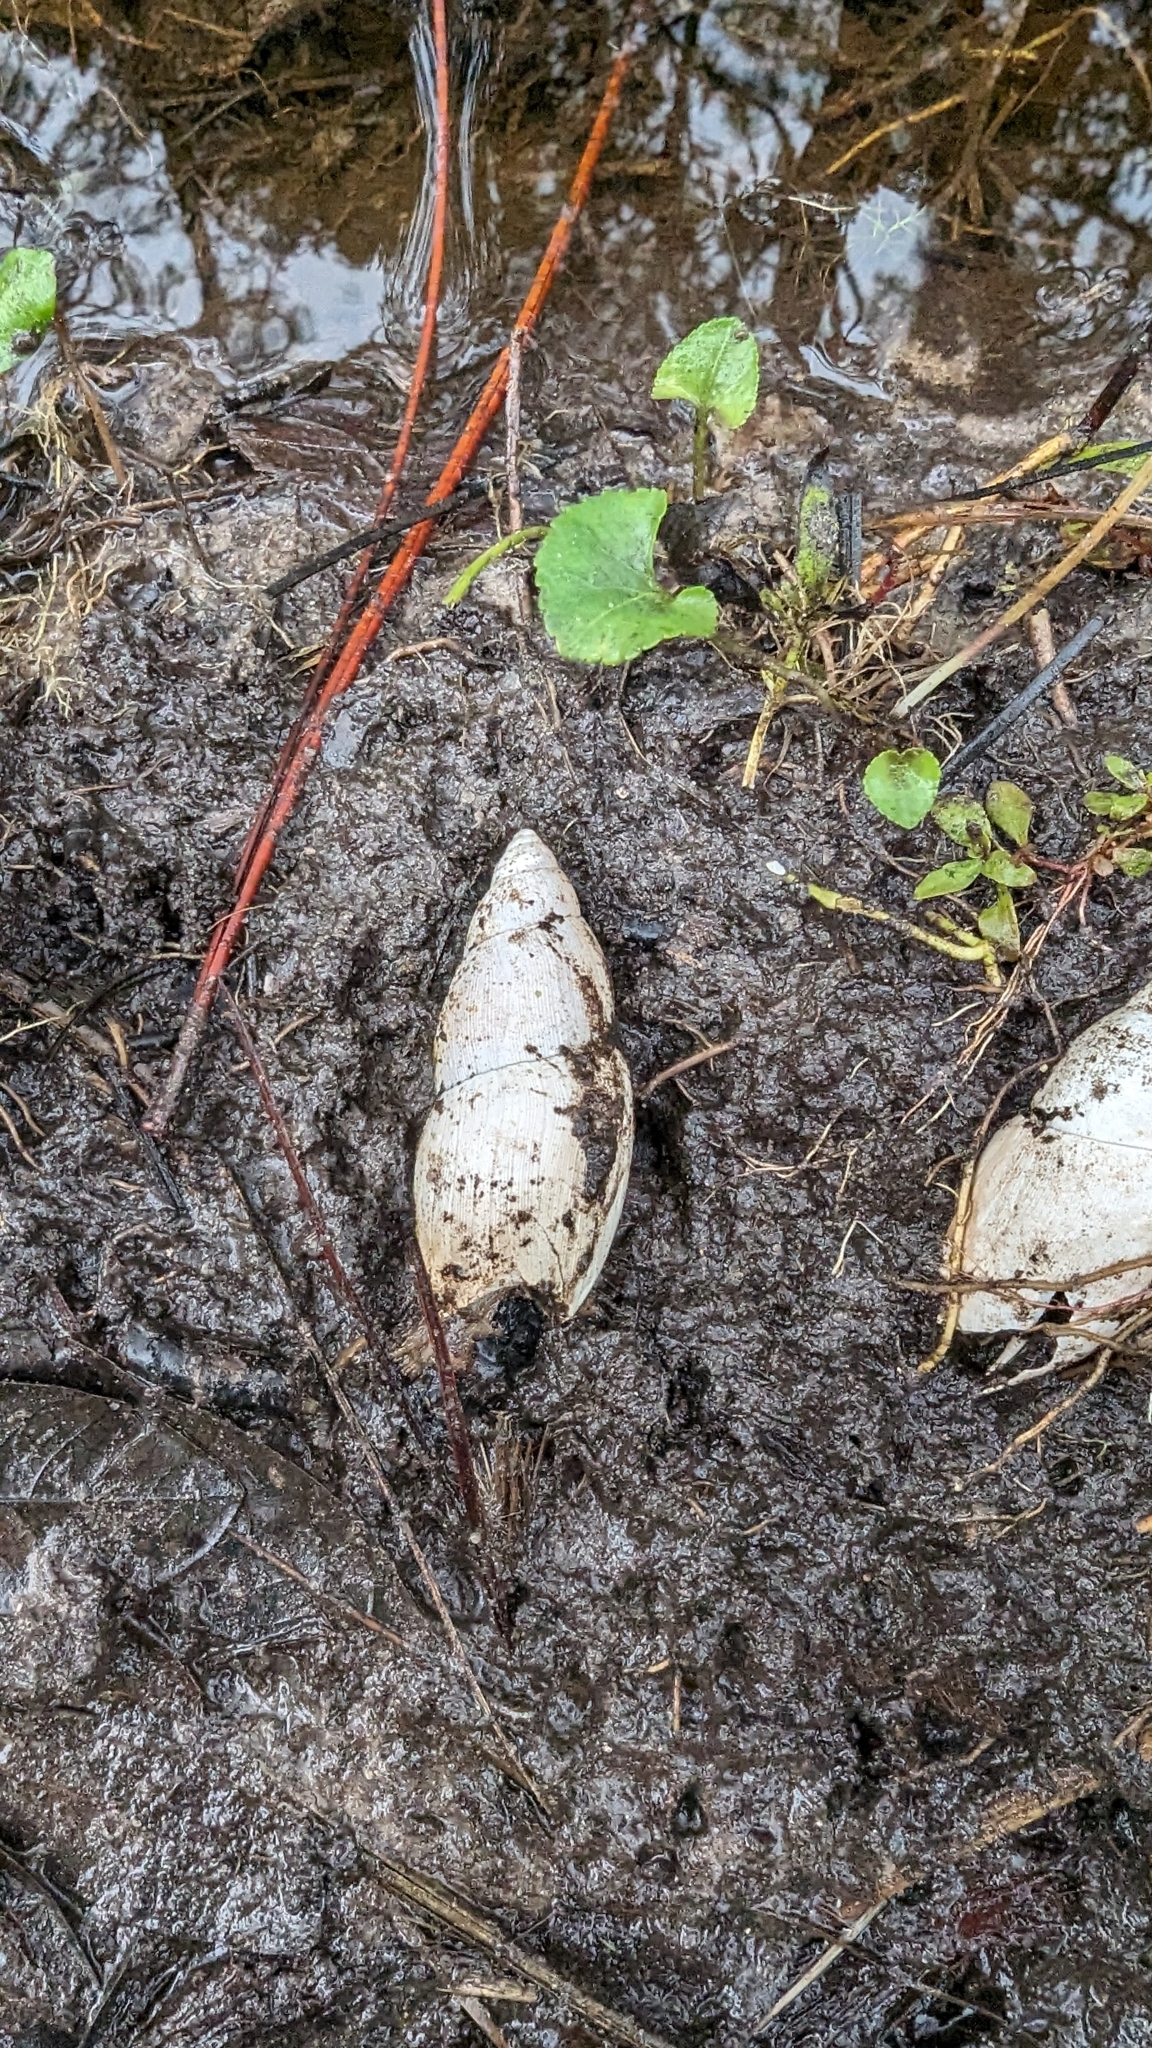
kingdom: Animalia
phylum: Mollusca
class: Gastropoda
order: Stylommatophora
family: Spiraxidae
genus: Euglandina
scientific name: Euglandina rosea
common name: Rosy wolfsnail
